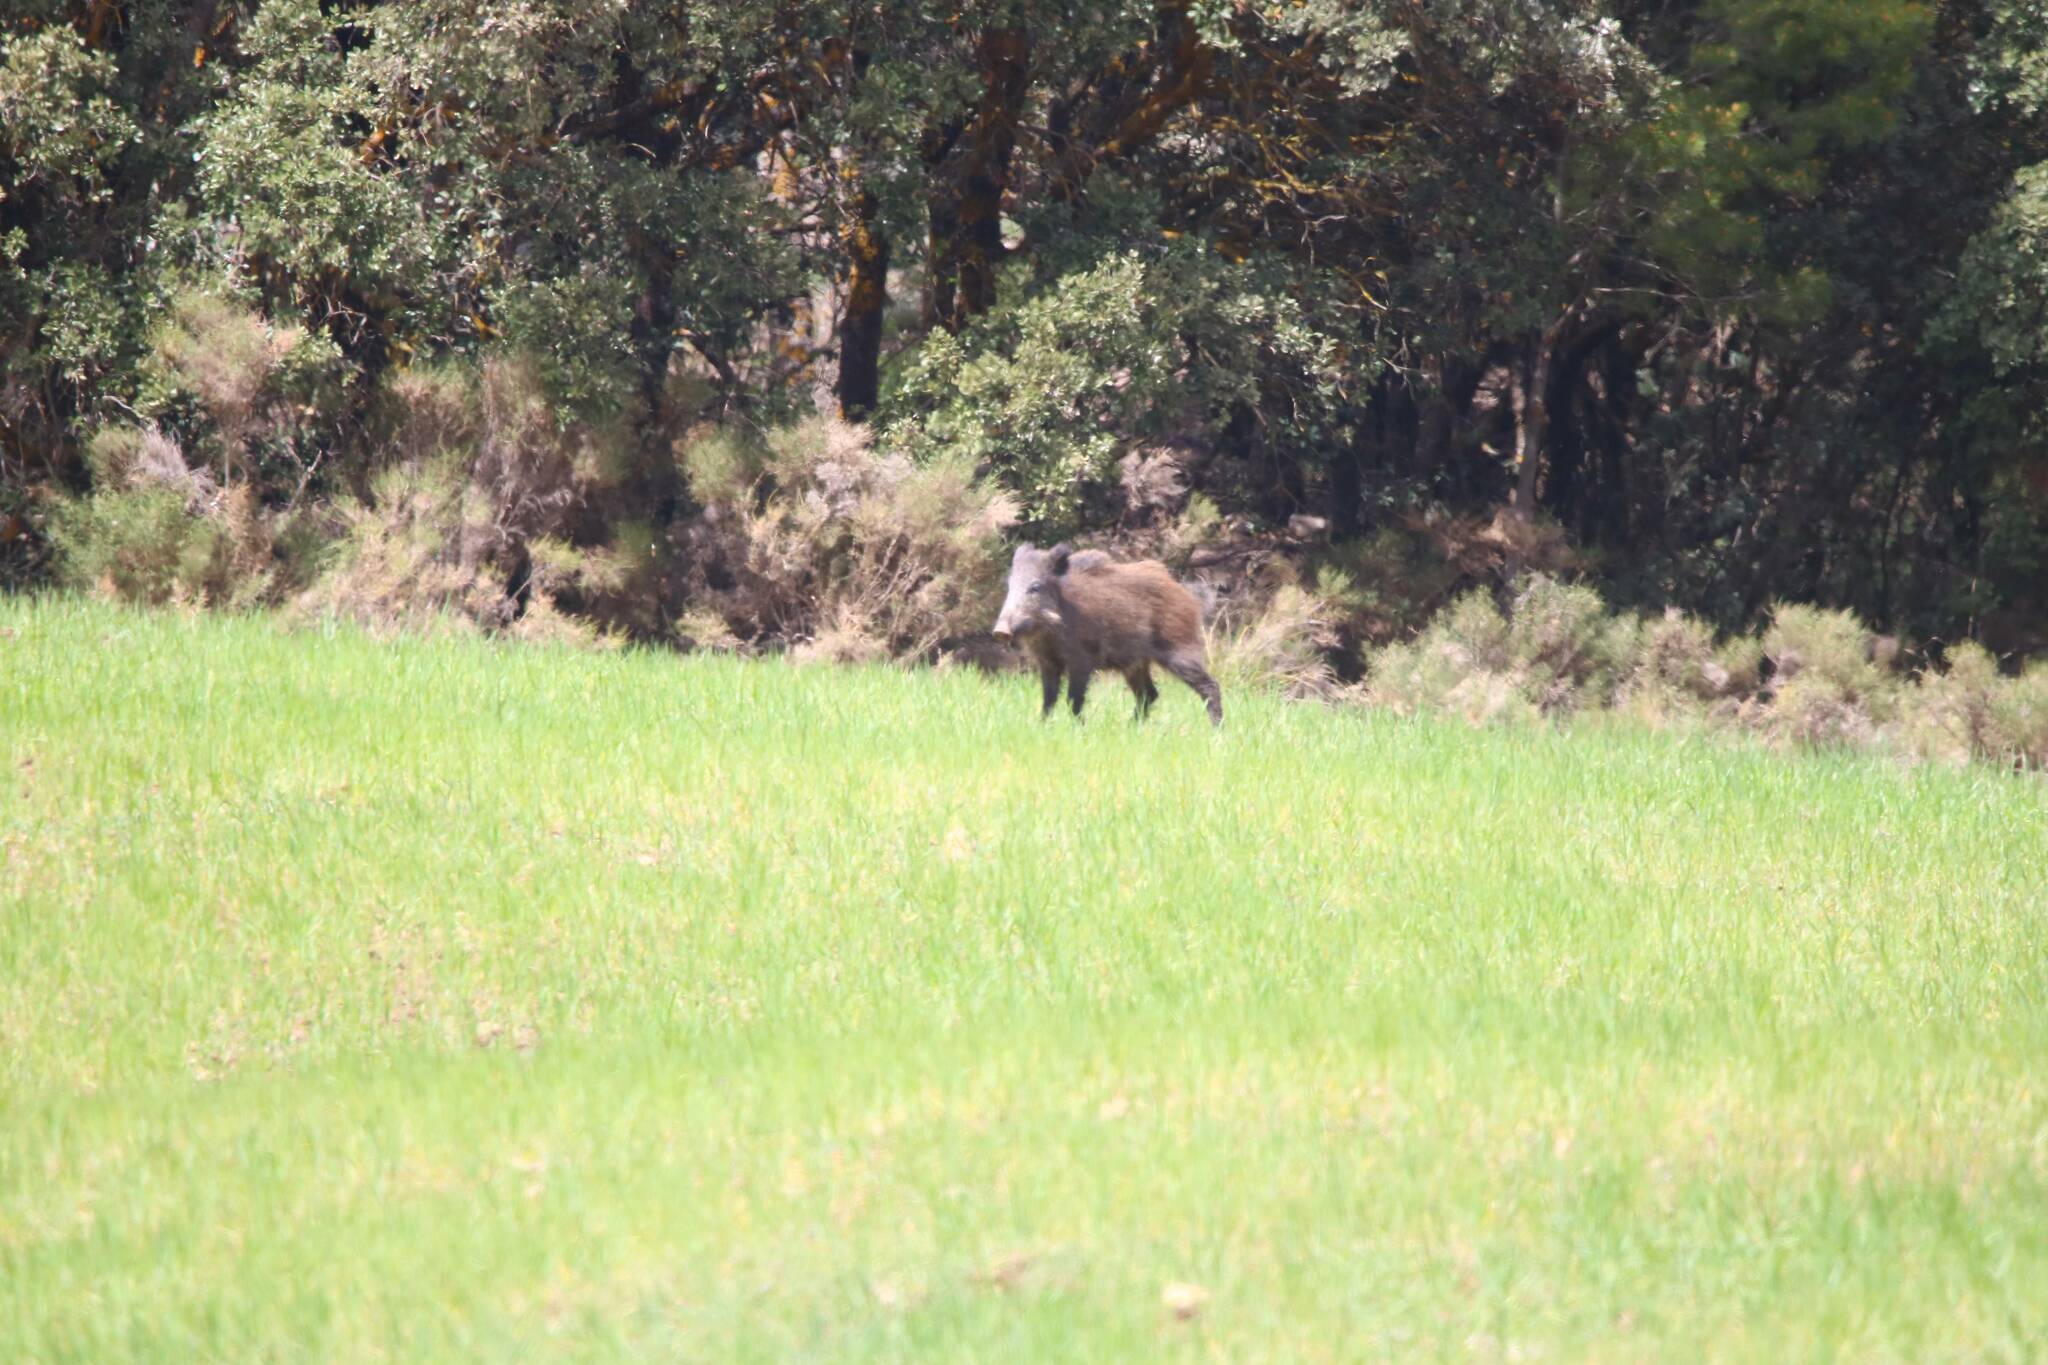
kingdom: Animalia
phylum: Chordata
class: Mammalia
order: Artiodactyla
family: Suidae
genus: Sus
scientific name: Sus scrofa
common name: Wild boar
